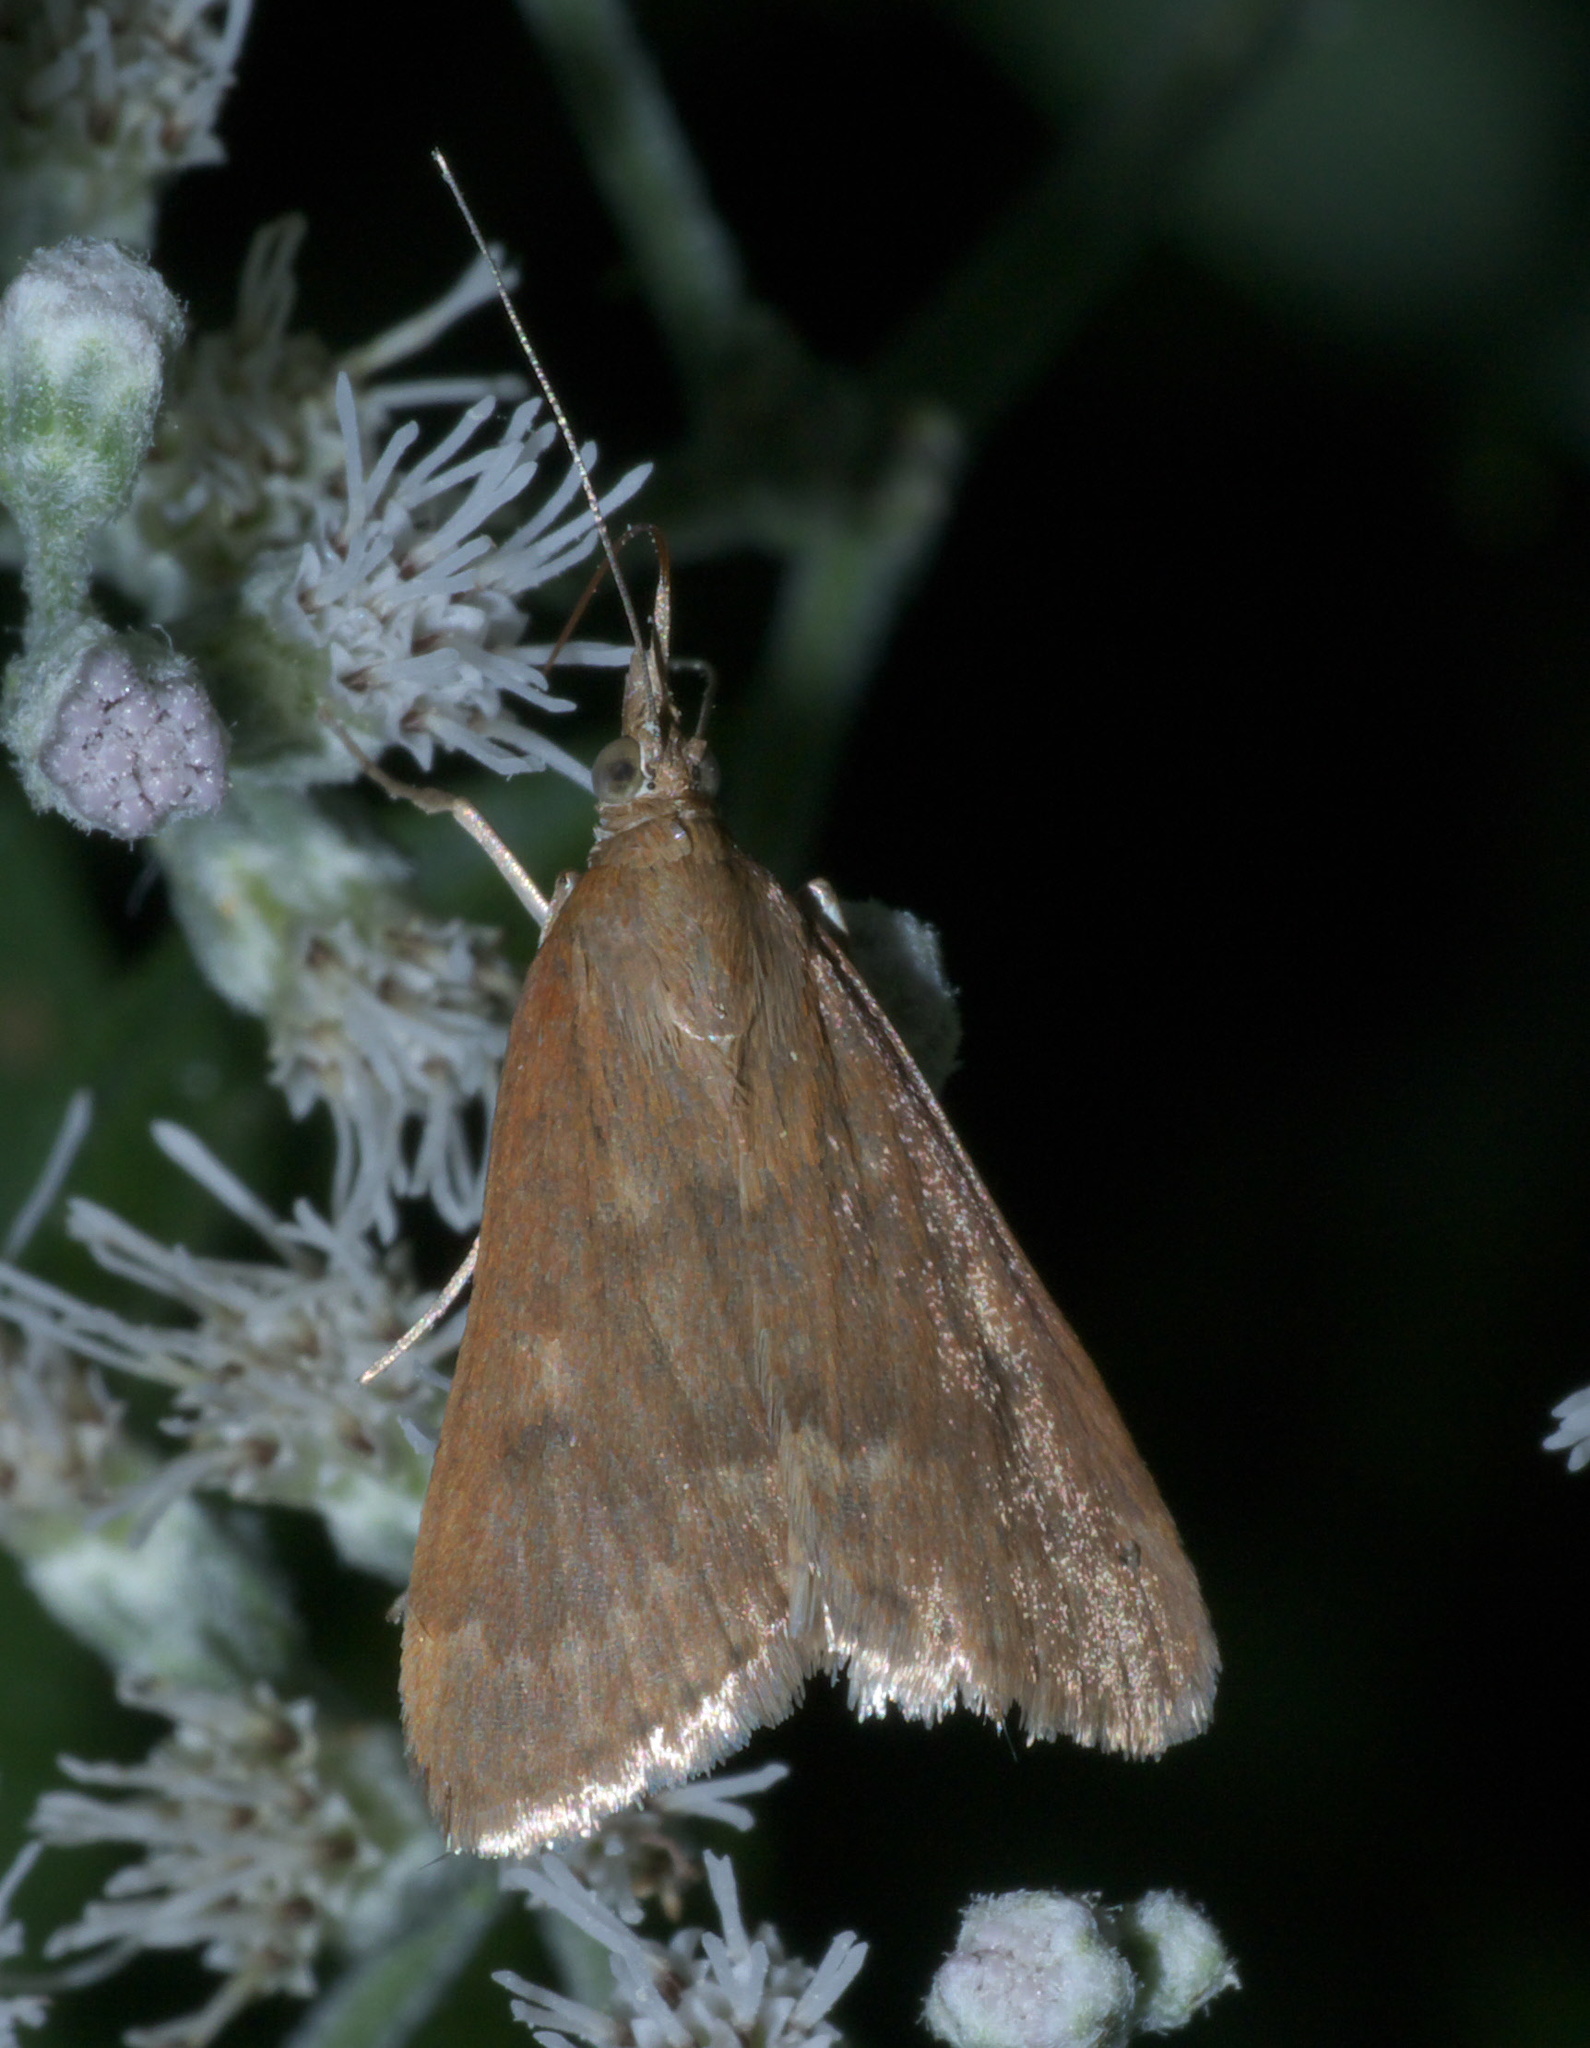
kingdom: Animalia
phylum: Arthropoda
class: Insecta
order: Lepidoptera
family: Crambidae
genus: Achyra
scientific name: Achyra rantalis
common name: Garden webworm
